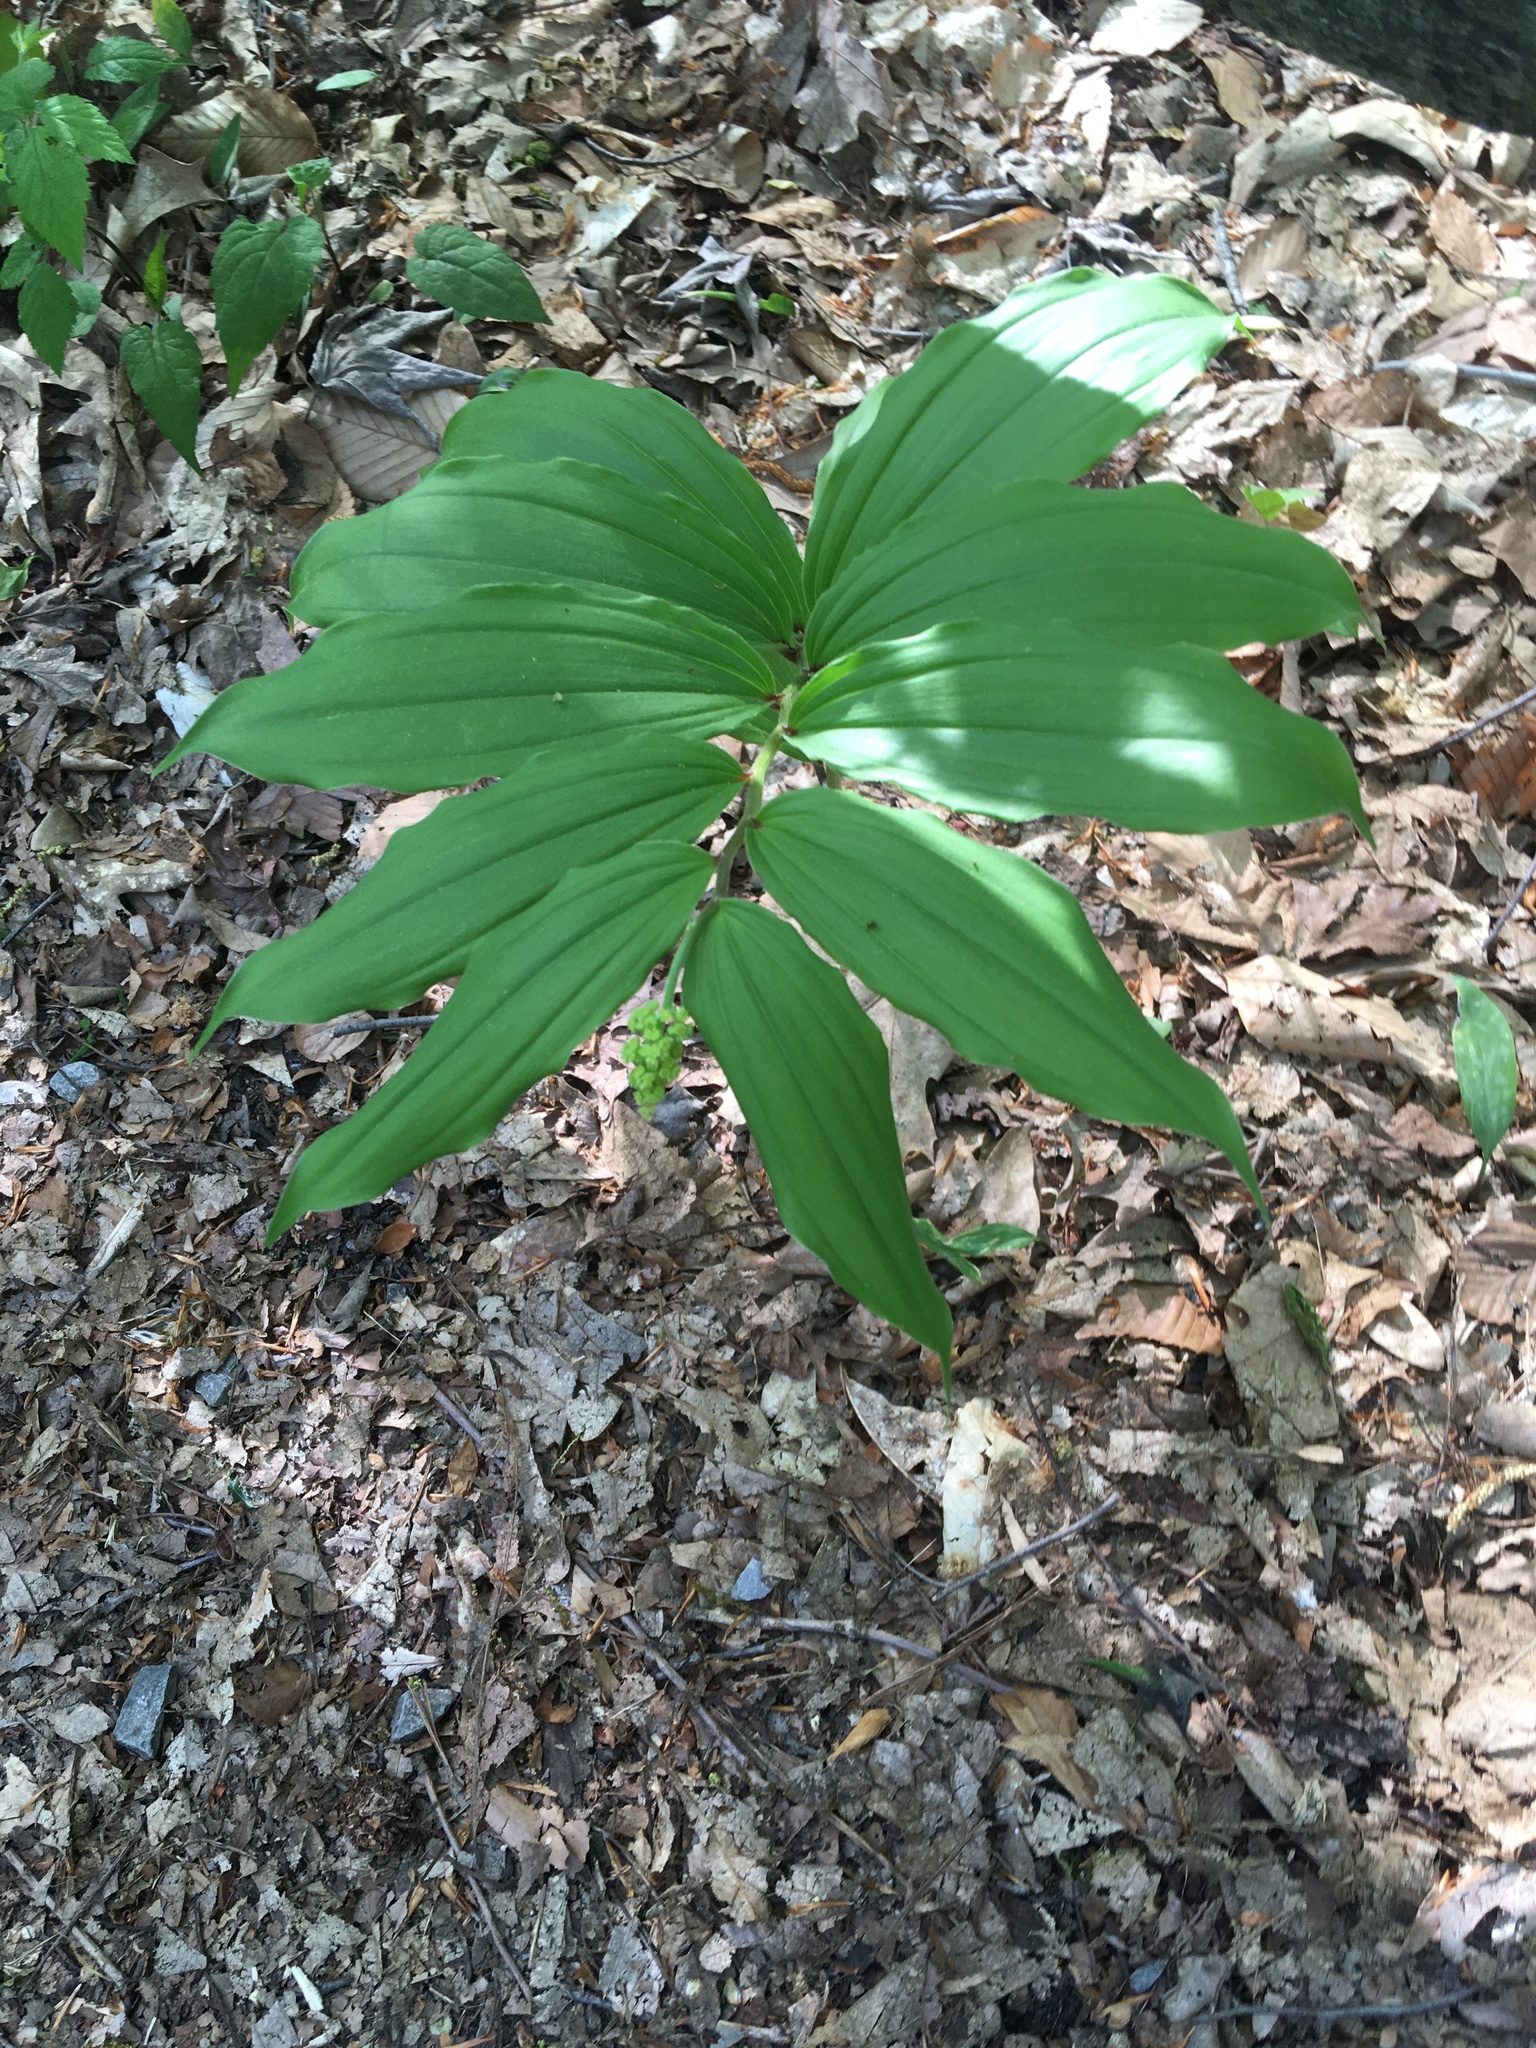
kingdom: Plantae
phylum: Tracheophyta
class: Liliopsida
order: Asparagales
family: Asparagaceae
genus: Maianthemum
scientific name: Maianthemum racemosum
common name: False spikenard
